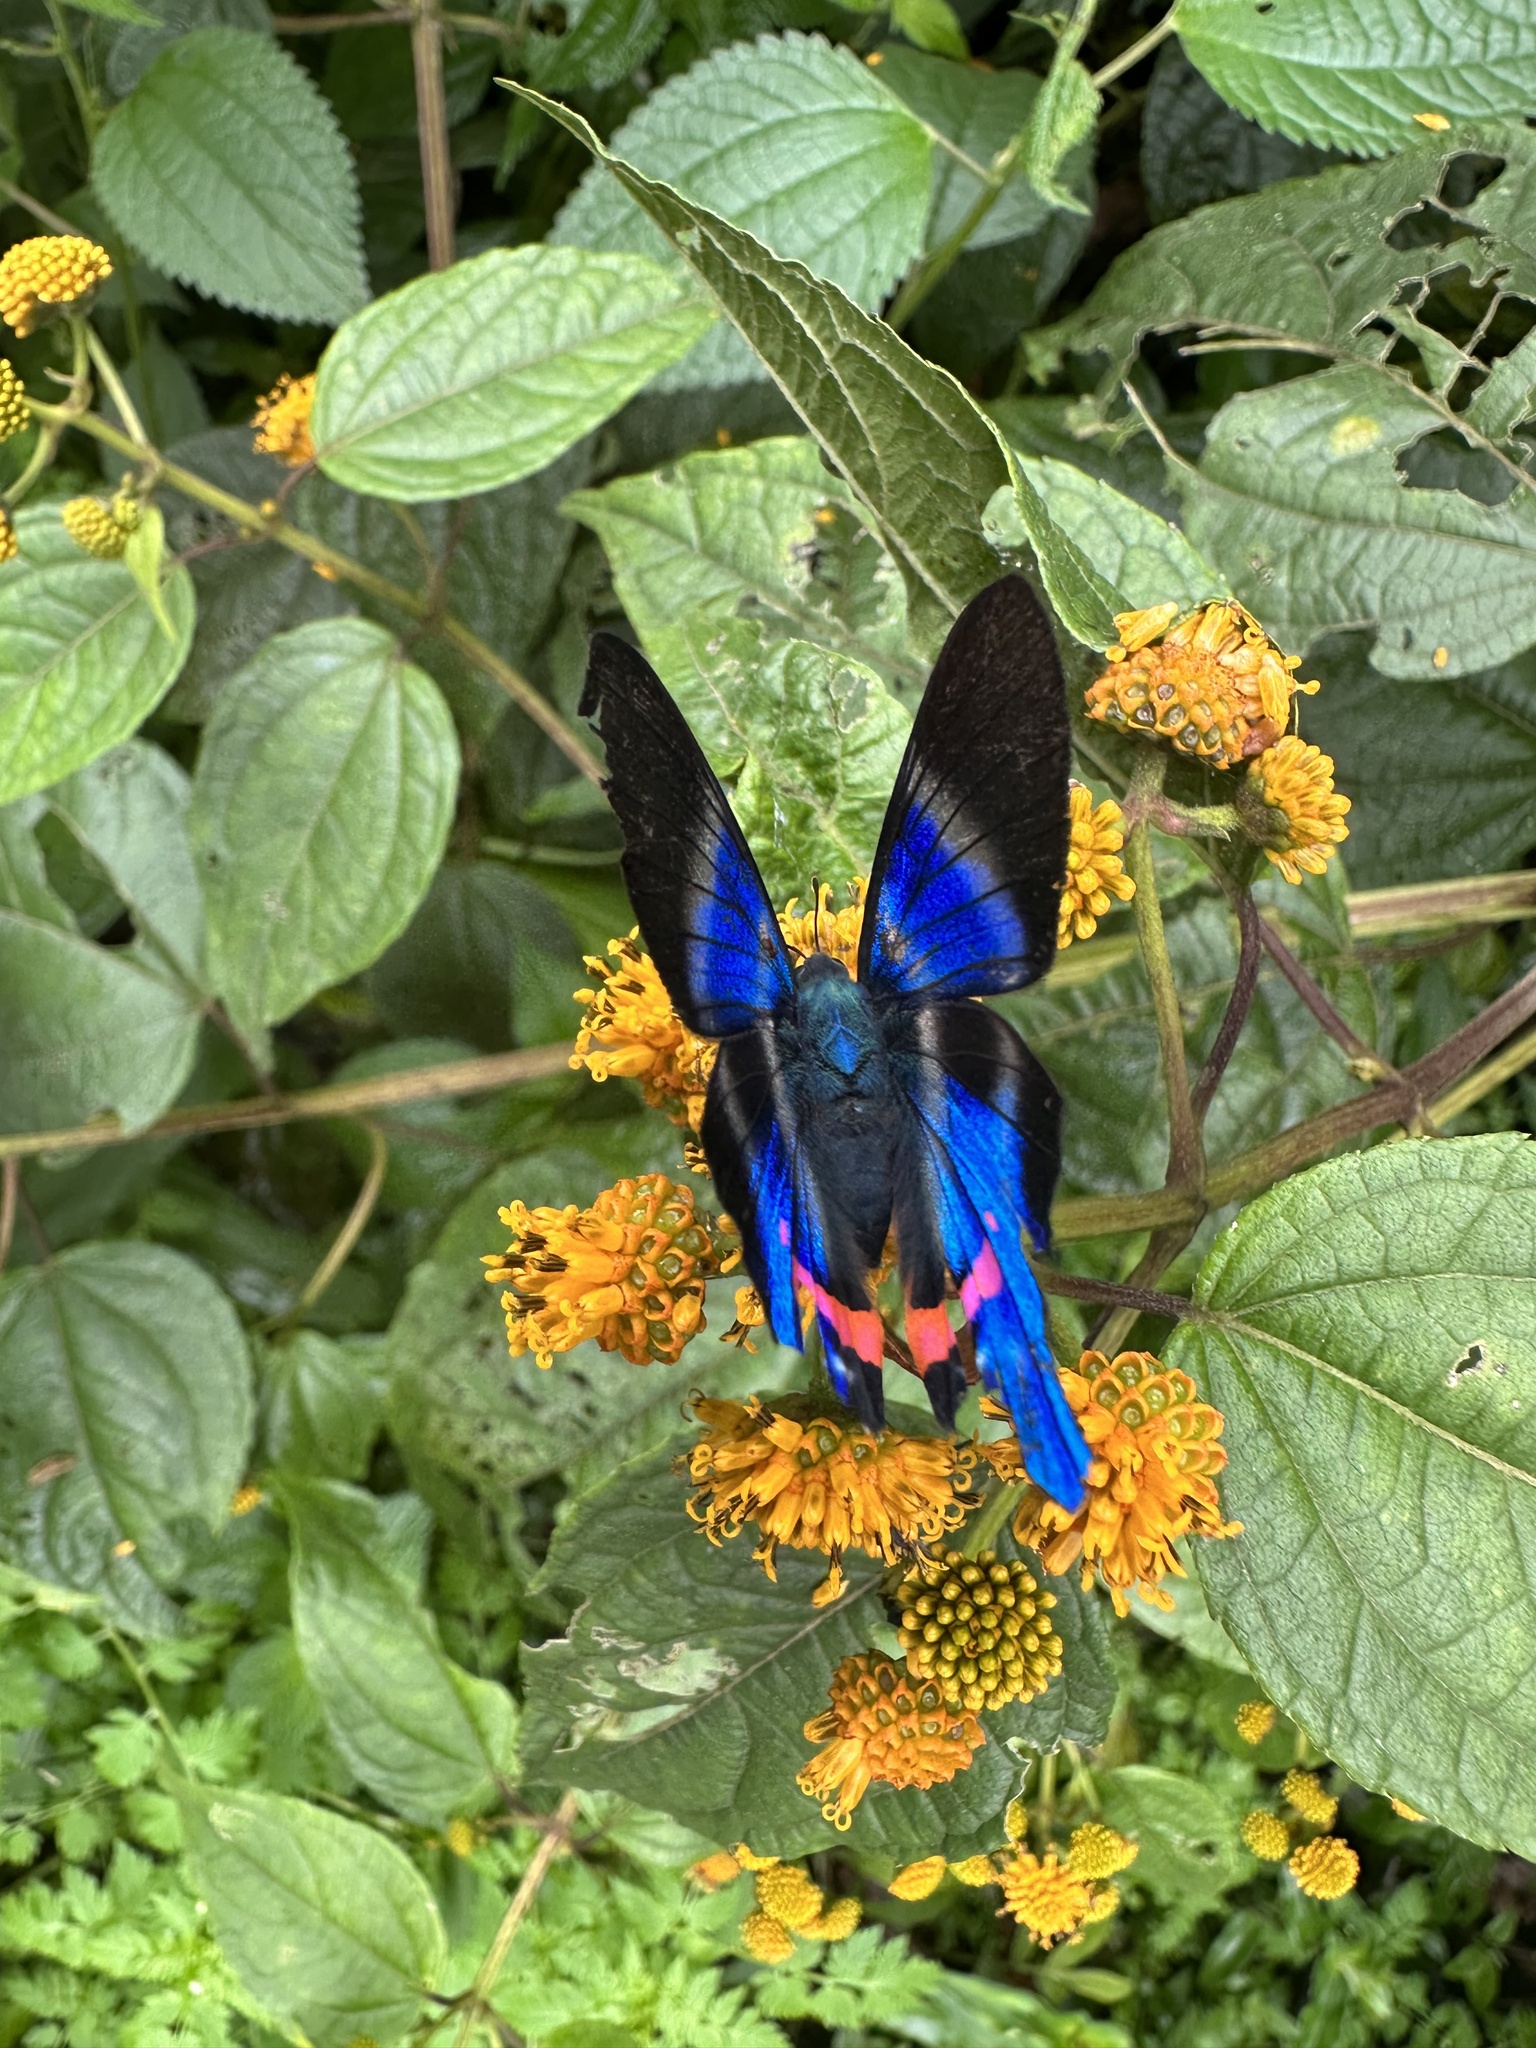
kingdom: Animalia
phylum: Arthropoda
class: Insecta
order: Lepidoptera
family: Riodinidae
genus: Rhetus
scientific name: Rhetus dysonii
